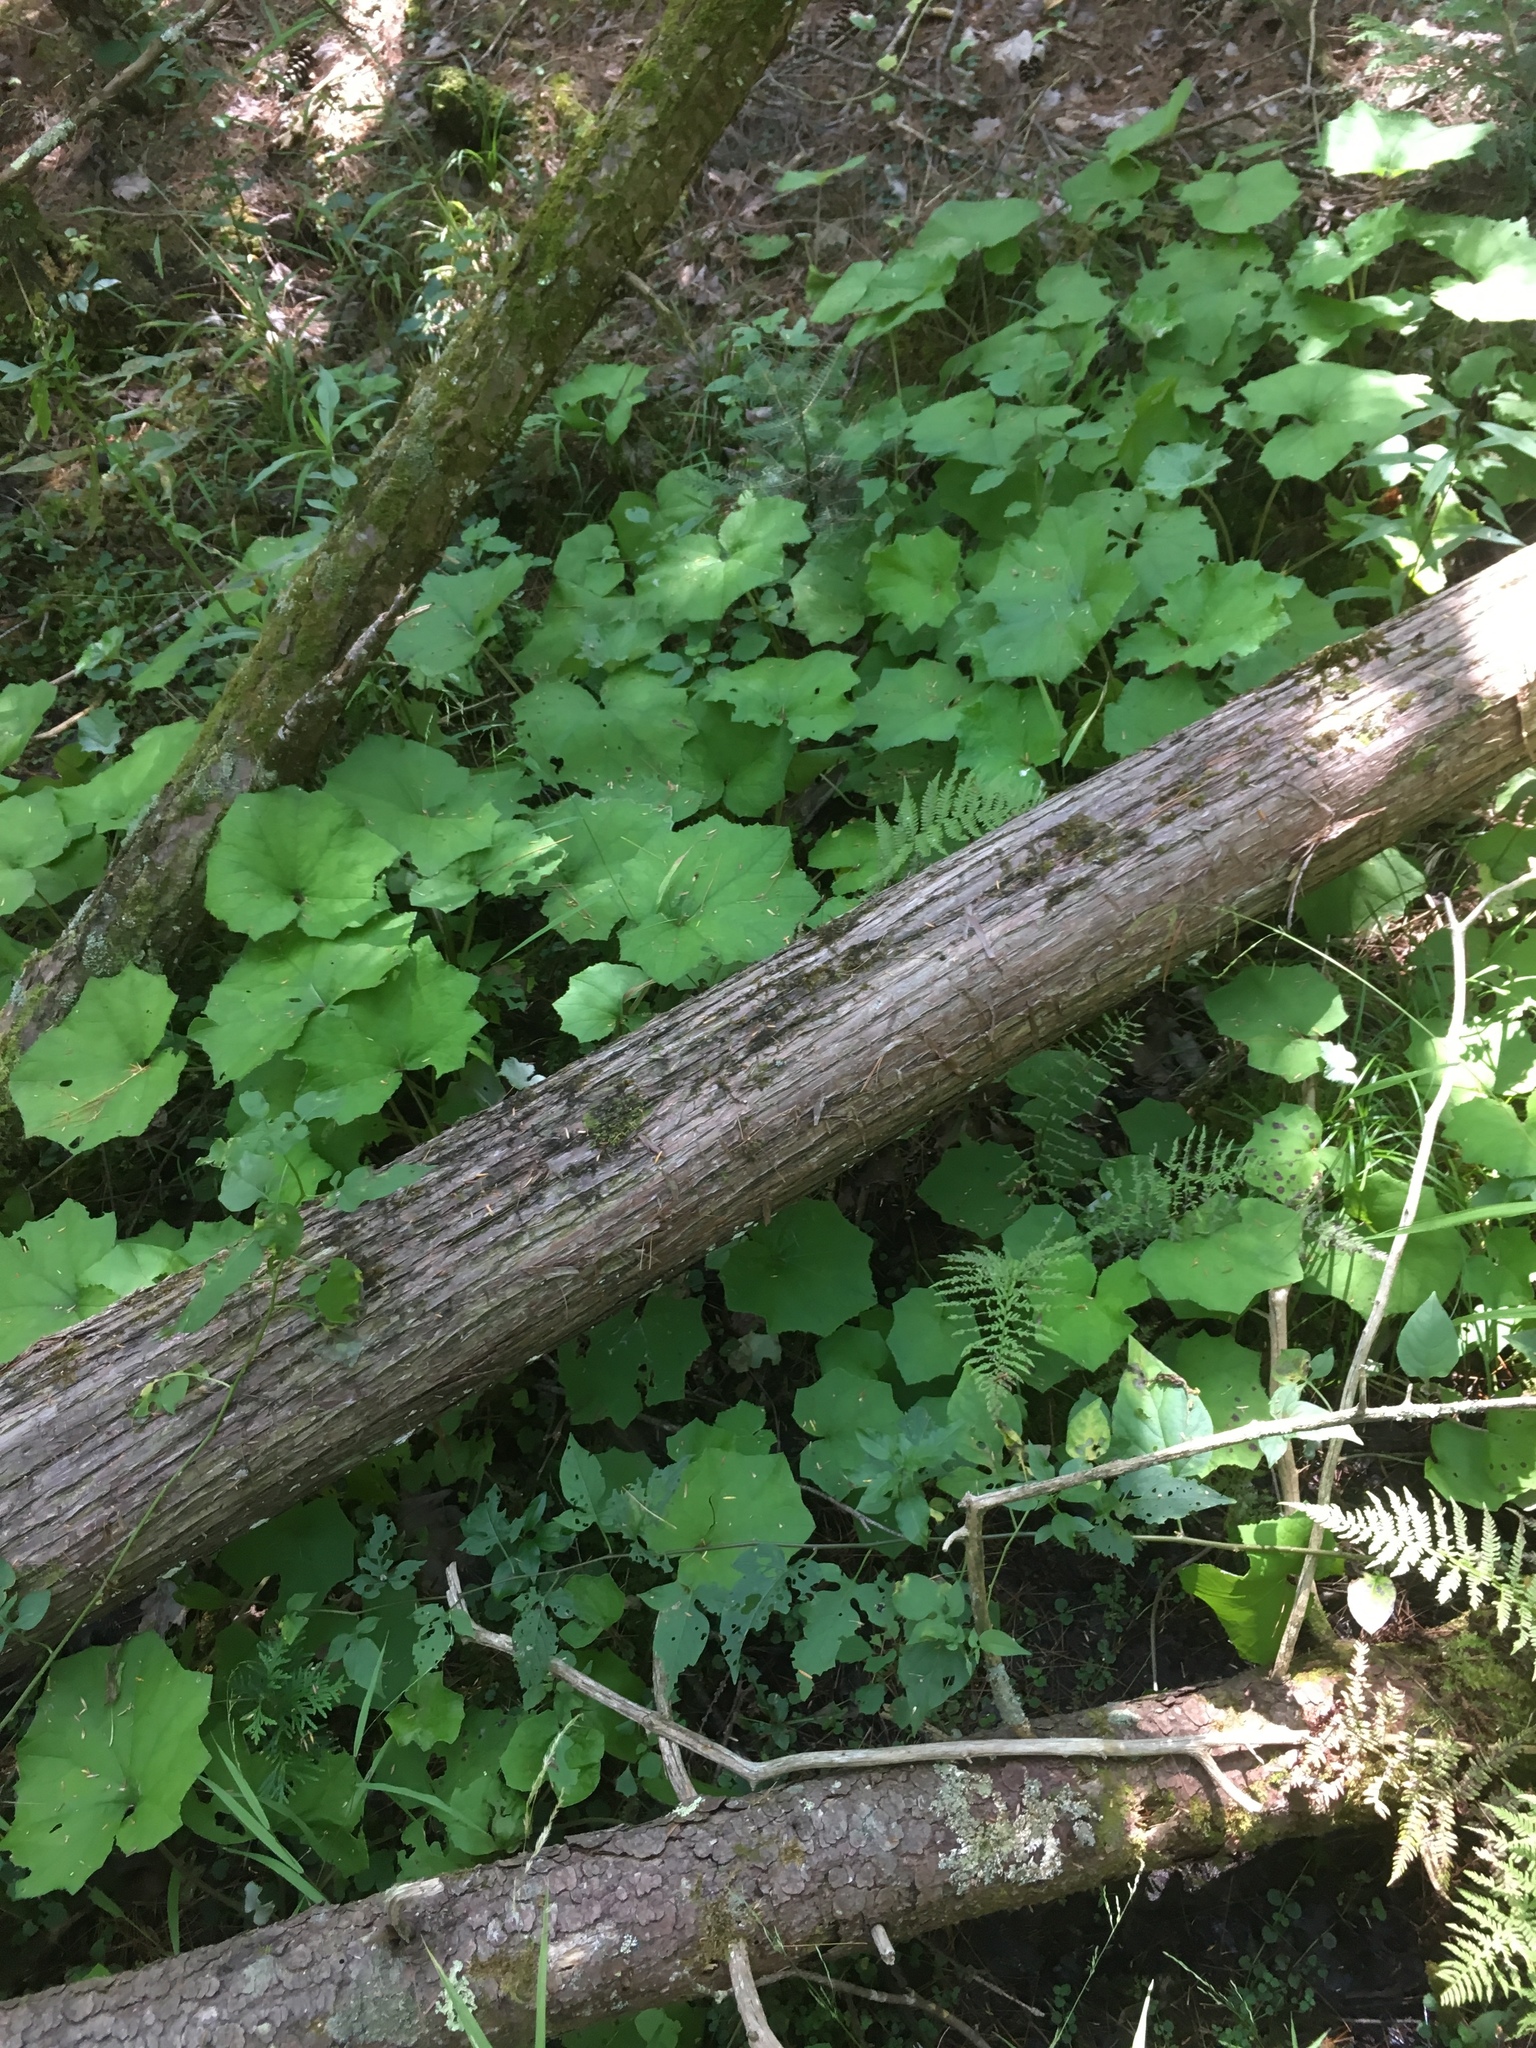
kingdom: Plantae
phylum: Tracheophyta
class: Magnoliopsida
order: Asterales
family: Asteraceae
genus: Tussilago
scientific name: Tussilago farfara
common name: Coltsfoot
